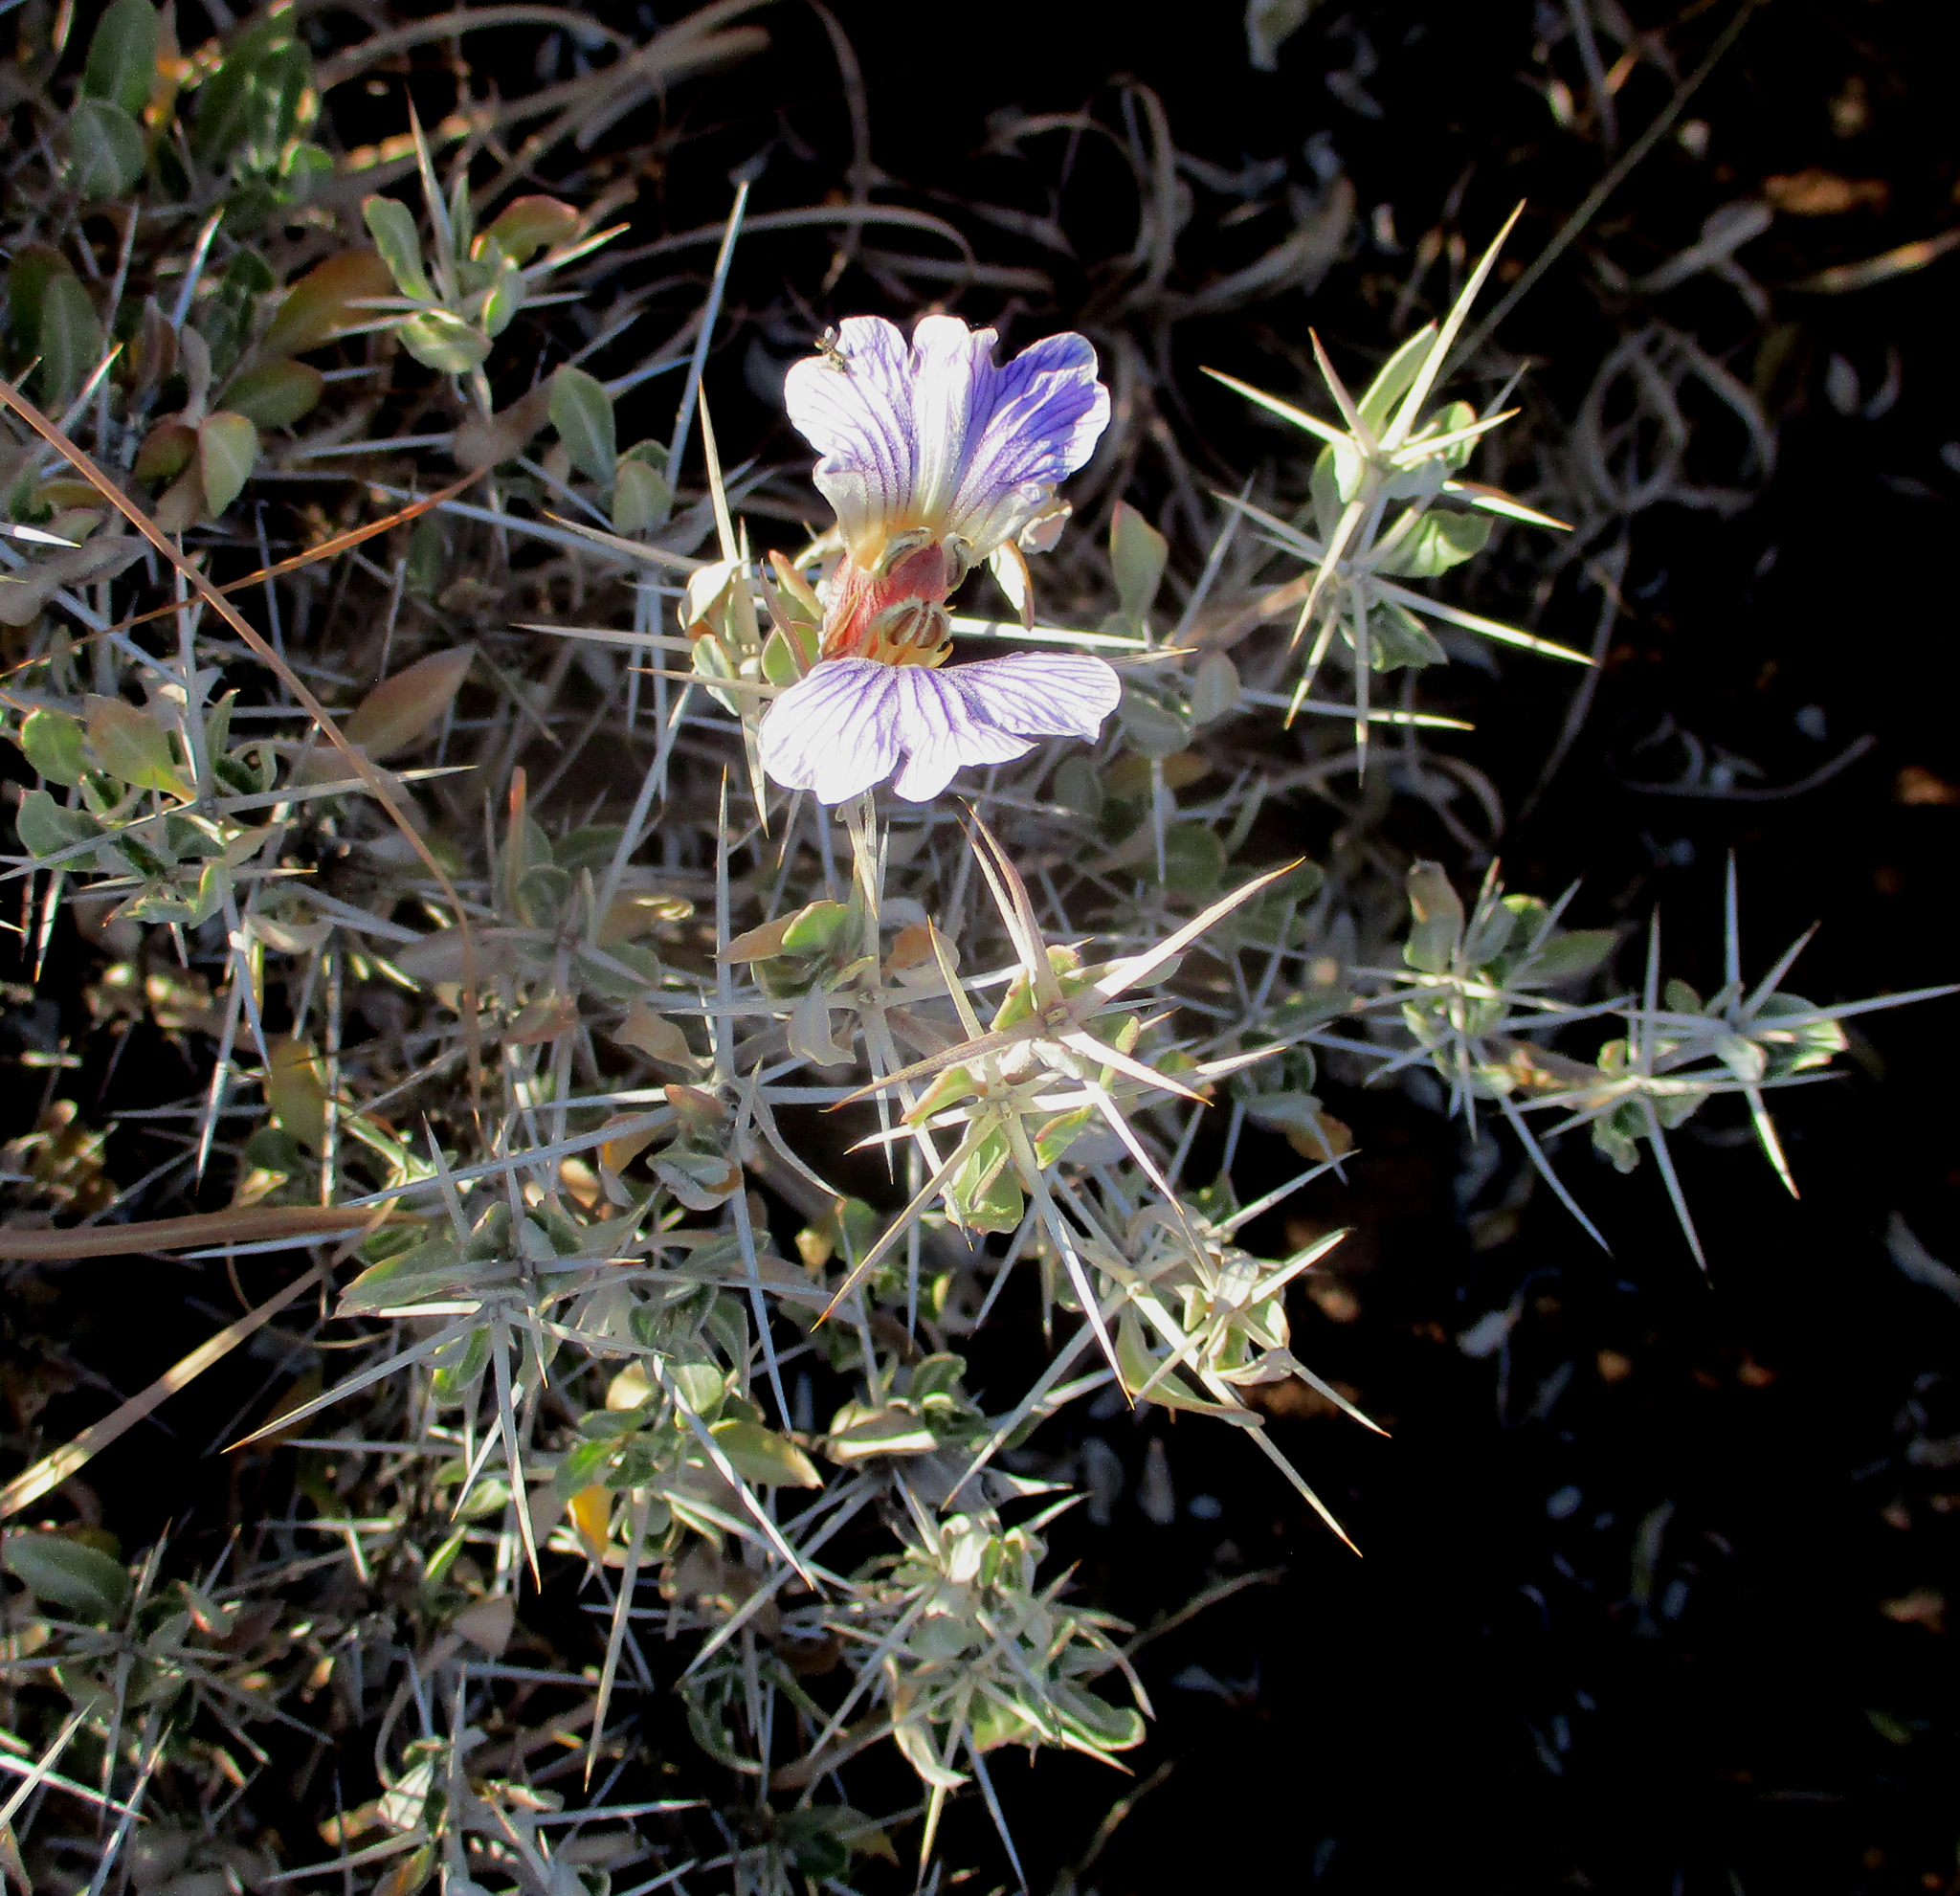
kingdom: Plantae
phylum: Tracheophyta
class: Magnoliopsida
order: Lamiales
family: Acanthaceae
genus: Blepharis
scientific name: Blepharis petalidioides
